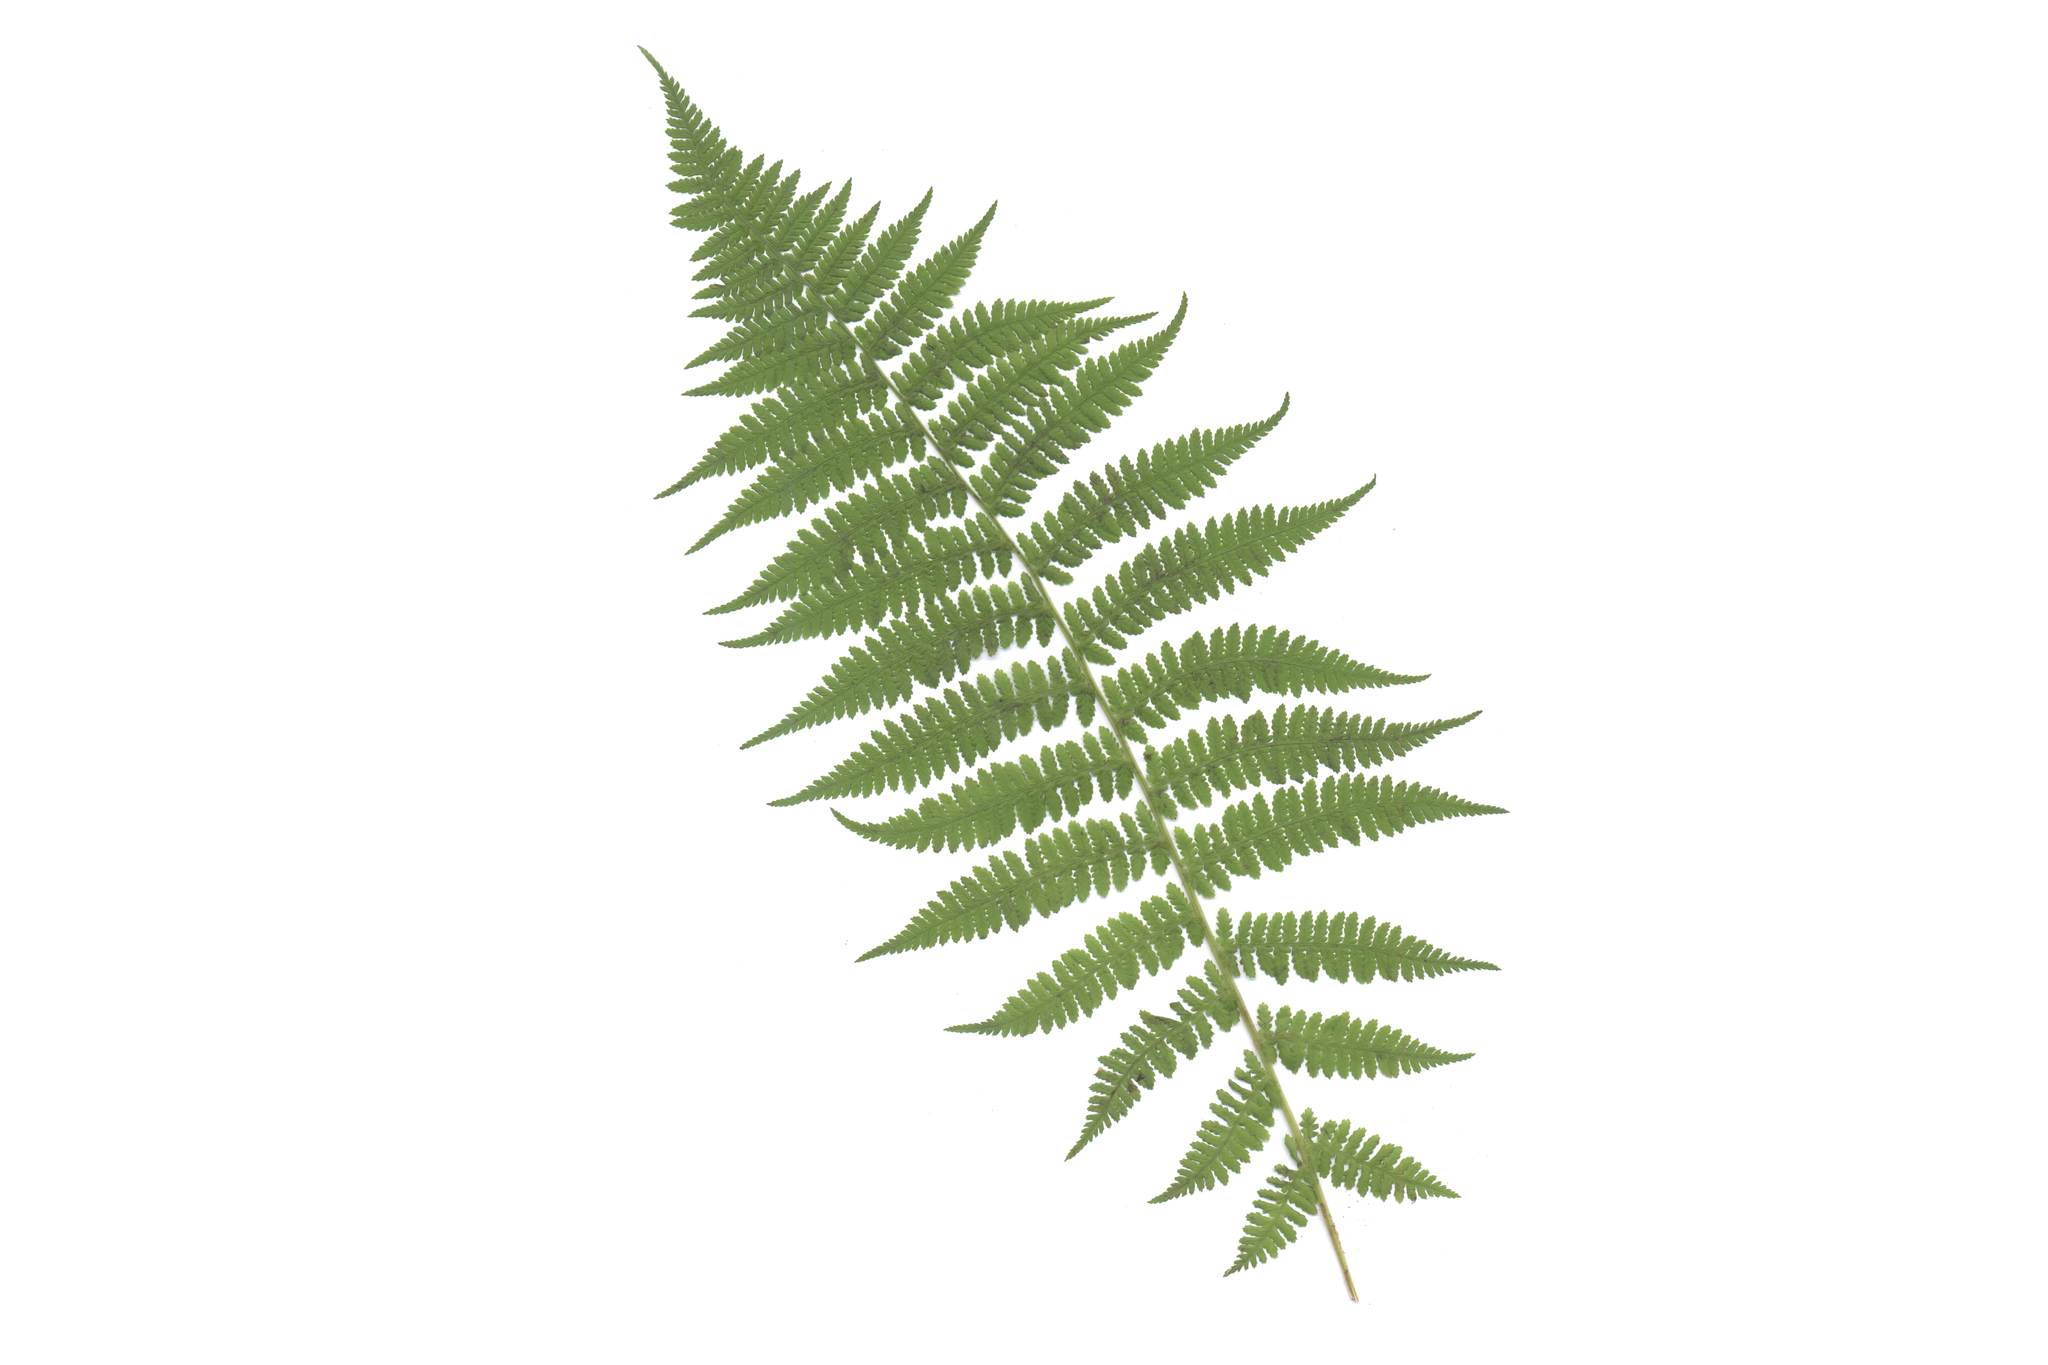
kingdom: Plantae
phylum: Tracheophyta
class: Polypodiopsida
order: Polypodiales
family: Athyriaceae
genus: Athyrium
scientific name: Athyrium filix-femina
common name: Lady fern
